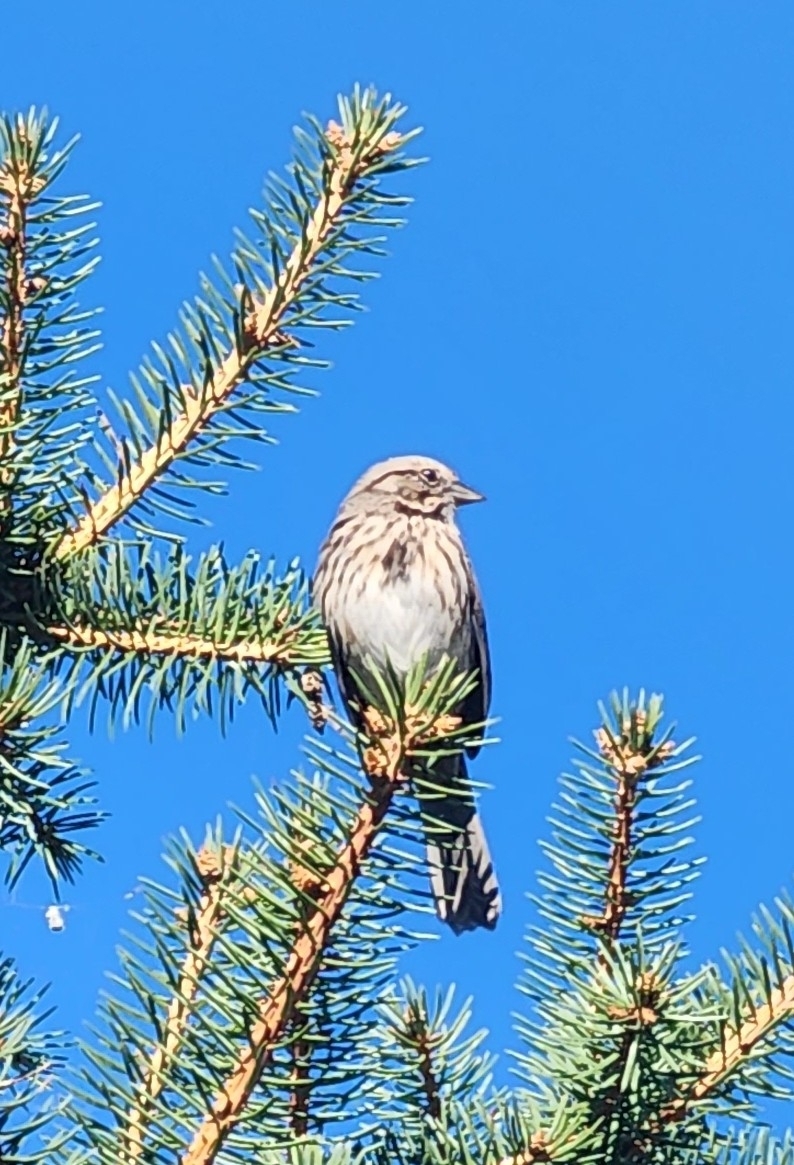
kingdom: Animalia
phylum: Chordata
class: Aves
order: Passeriformes
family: Passerellidae
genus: Melospiza
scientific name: Melospiza melodia
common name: Song sparrow
